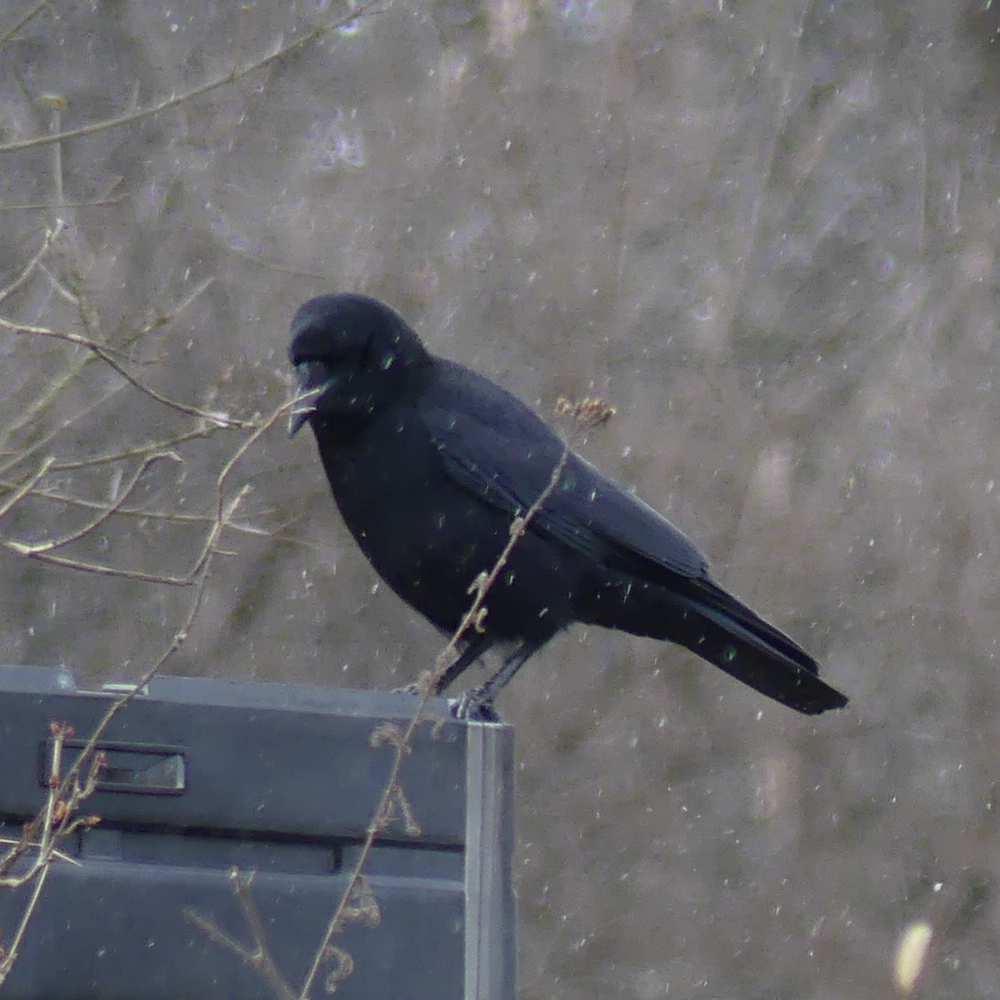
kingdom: Animalia
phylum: Chordata
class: Aves
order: Passeriformes
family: Corvidae
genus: Corvus
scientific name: Corvus brachyrhynchos
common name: American crow
